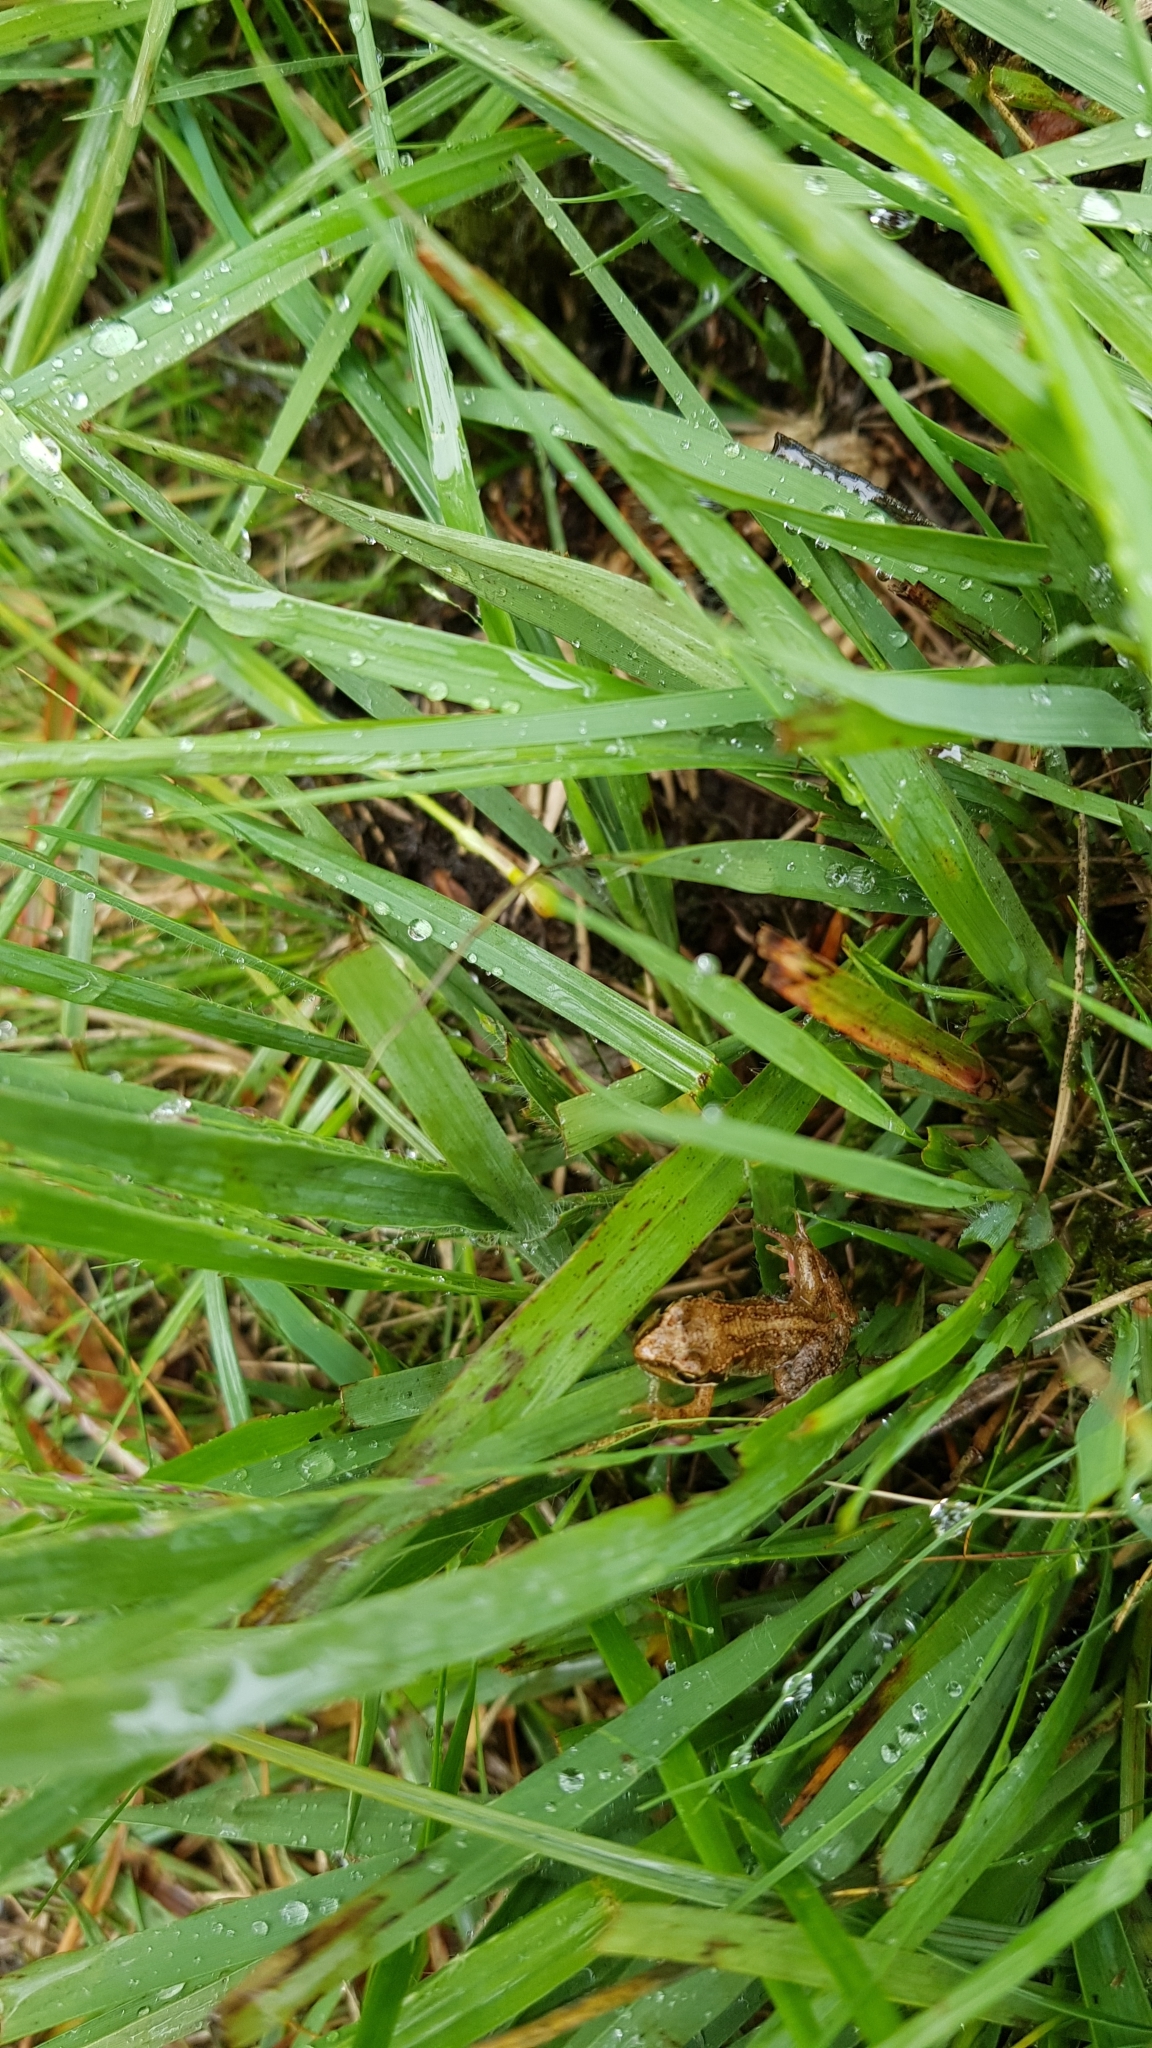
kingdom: Animalia
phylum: Chordata
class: Amphibia
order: Anura
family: Ranidae
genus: Rana
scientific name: Rana temporaria
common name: Common frog
